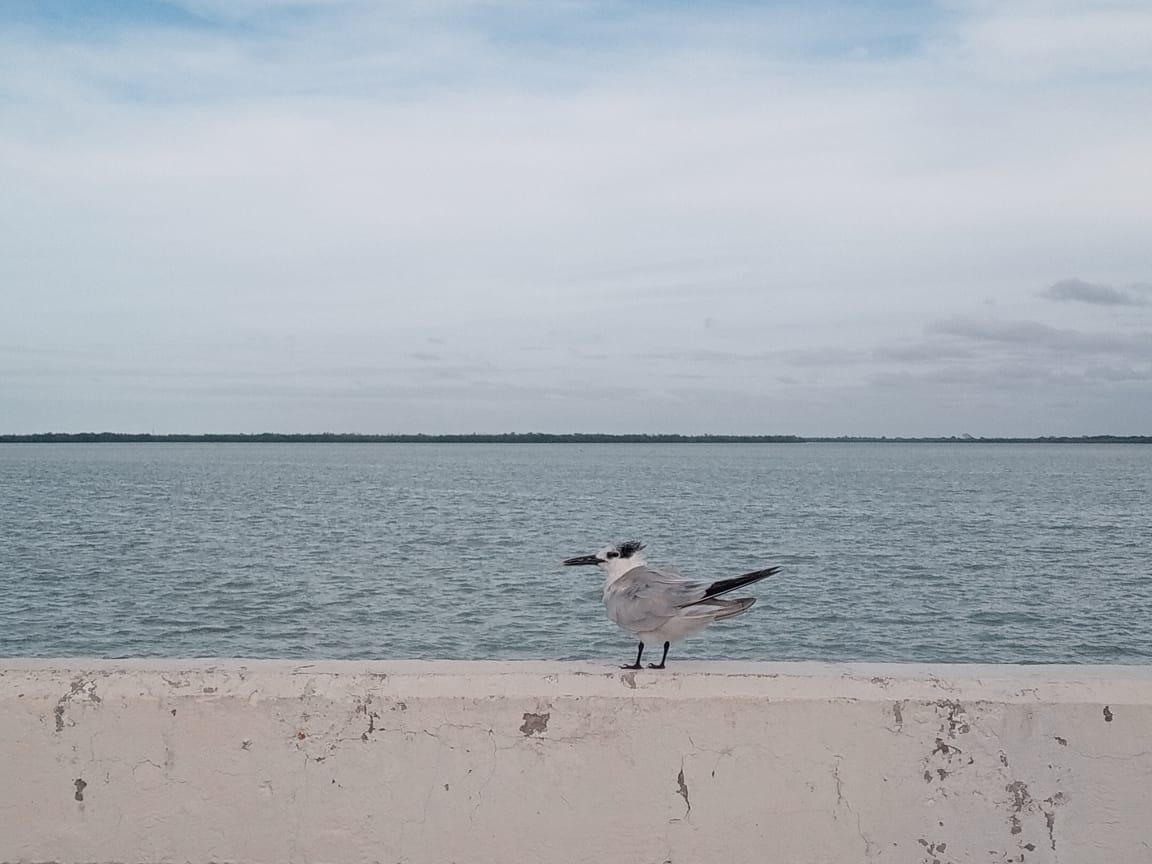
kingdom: Animalia
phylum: Chordata
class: Aves
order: Charadriiformes
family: Laridae
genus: Thalasseus
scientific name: Thalasseus sandvicensis
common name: Sandwich tern
